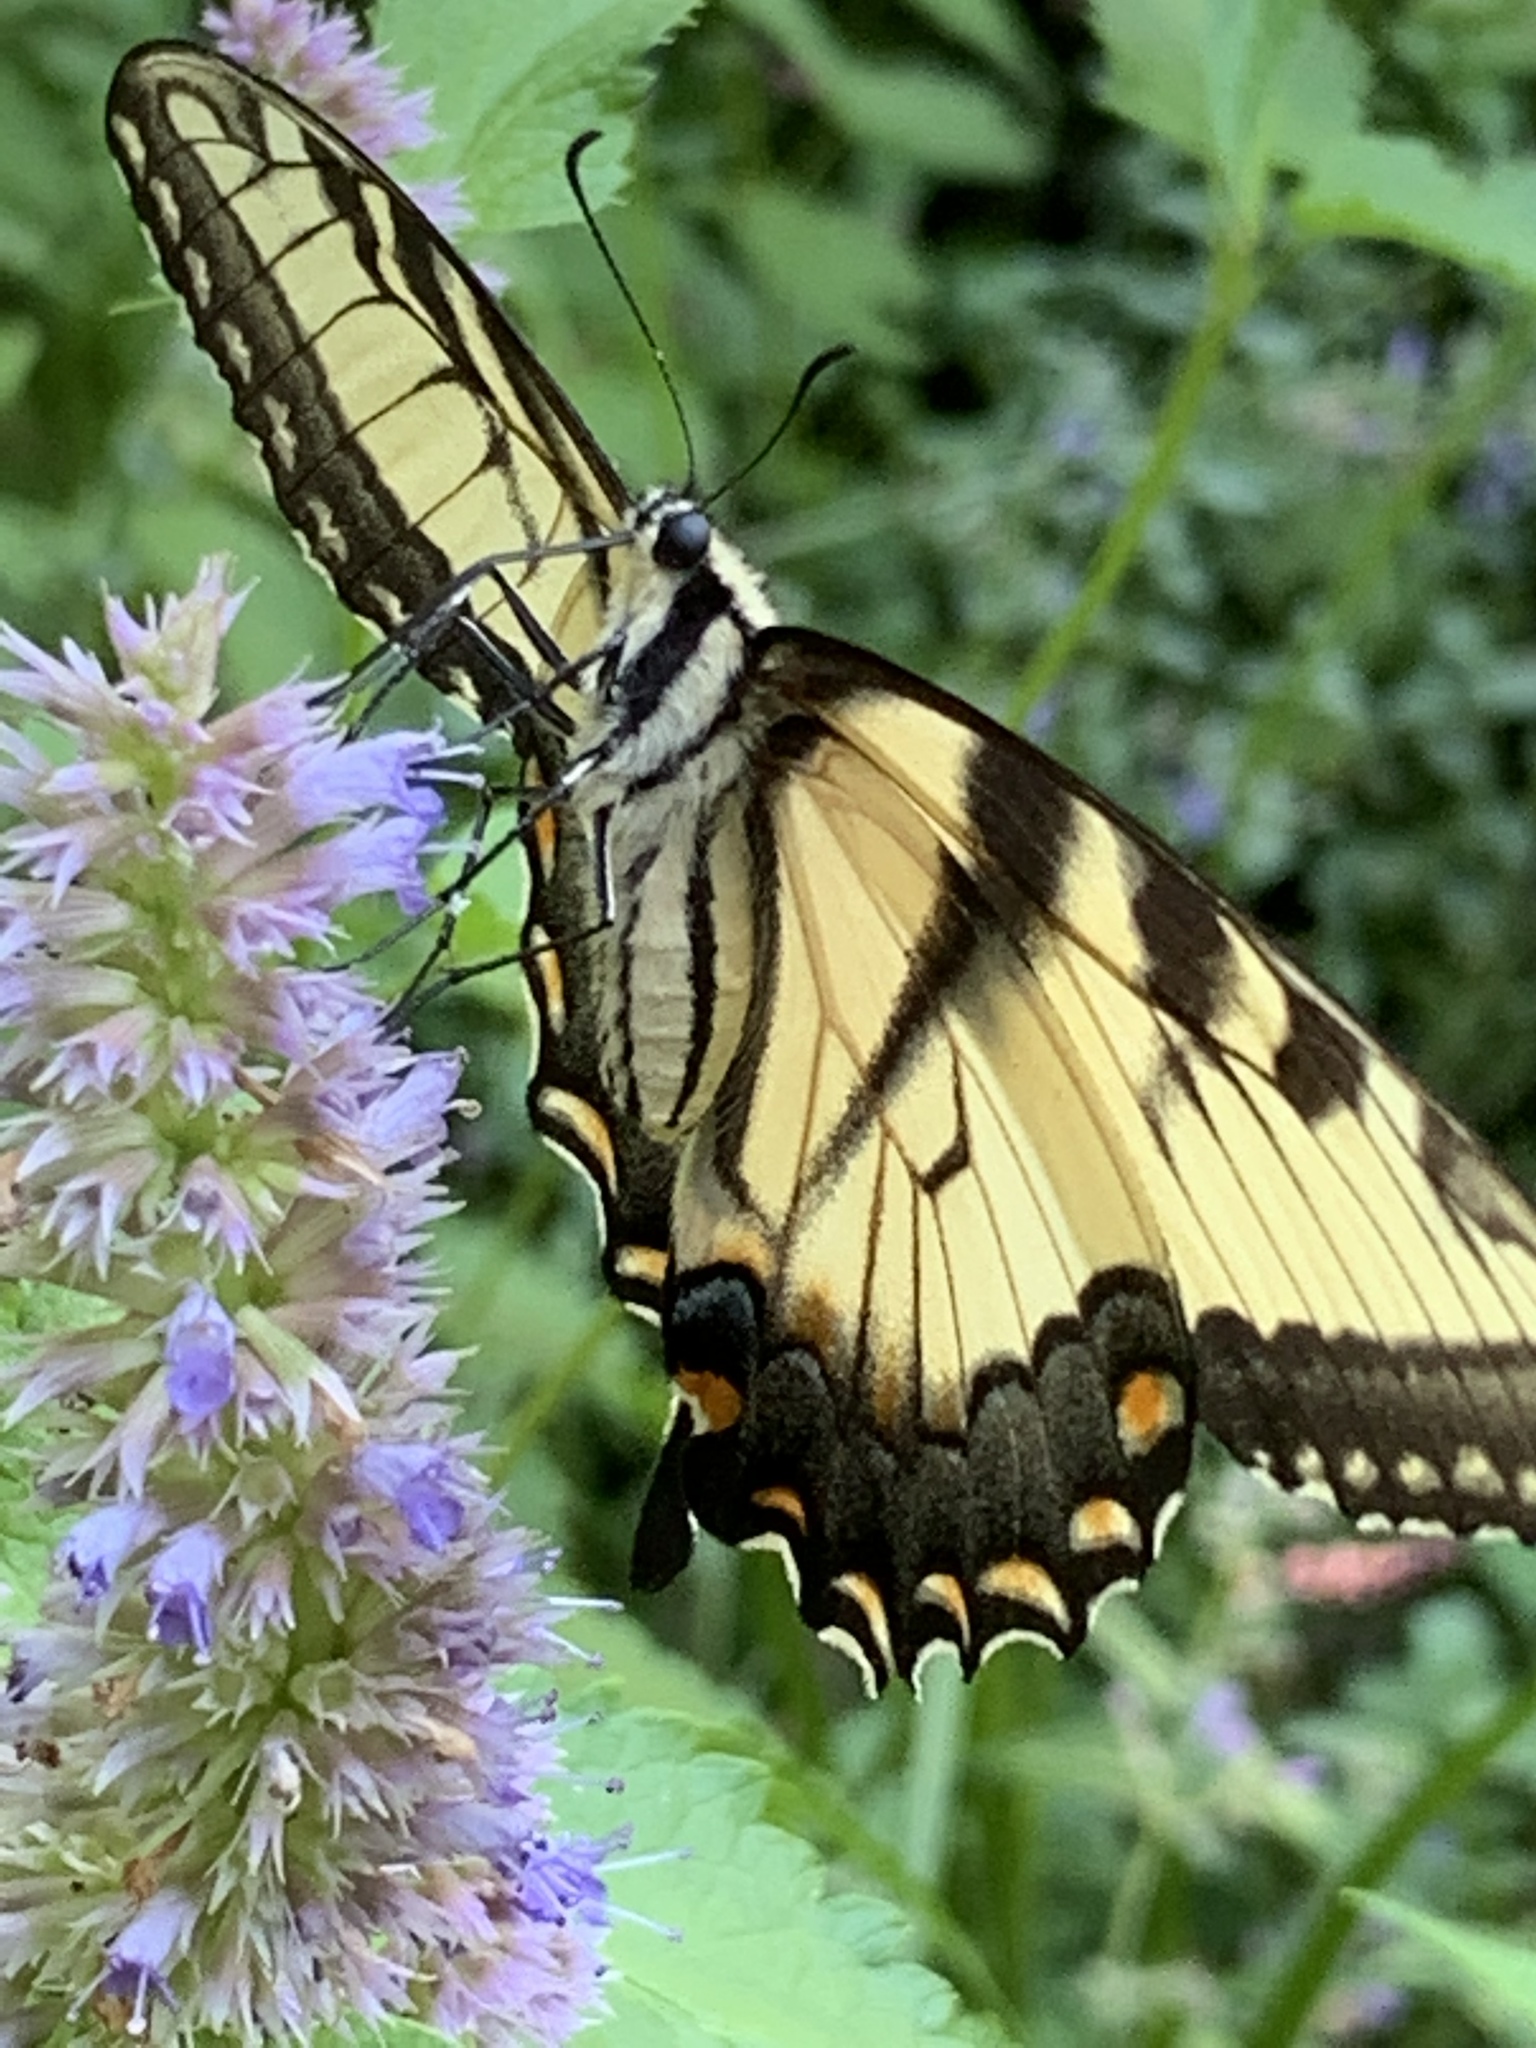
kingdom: Animalia
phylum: Arthropoda
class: Insecta
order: Lepidoptera
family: Papilionidae
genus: Papilio
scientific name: Papilio glaucus
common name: Tiger swallowtail
